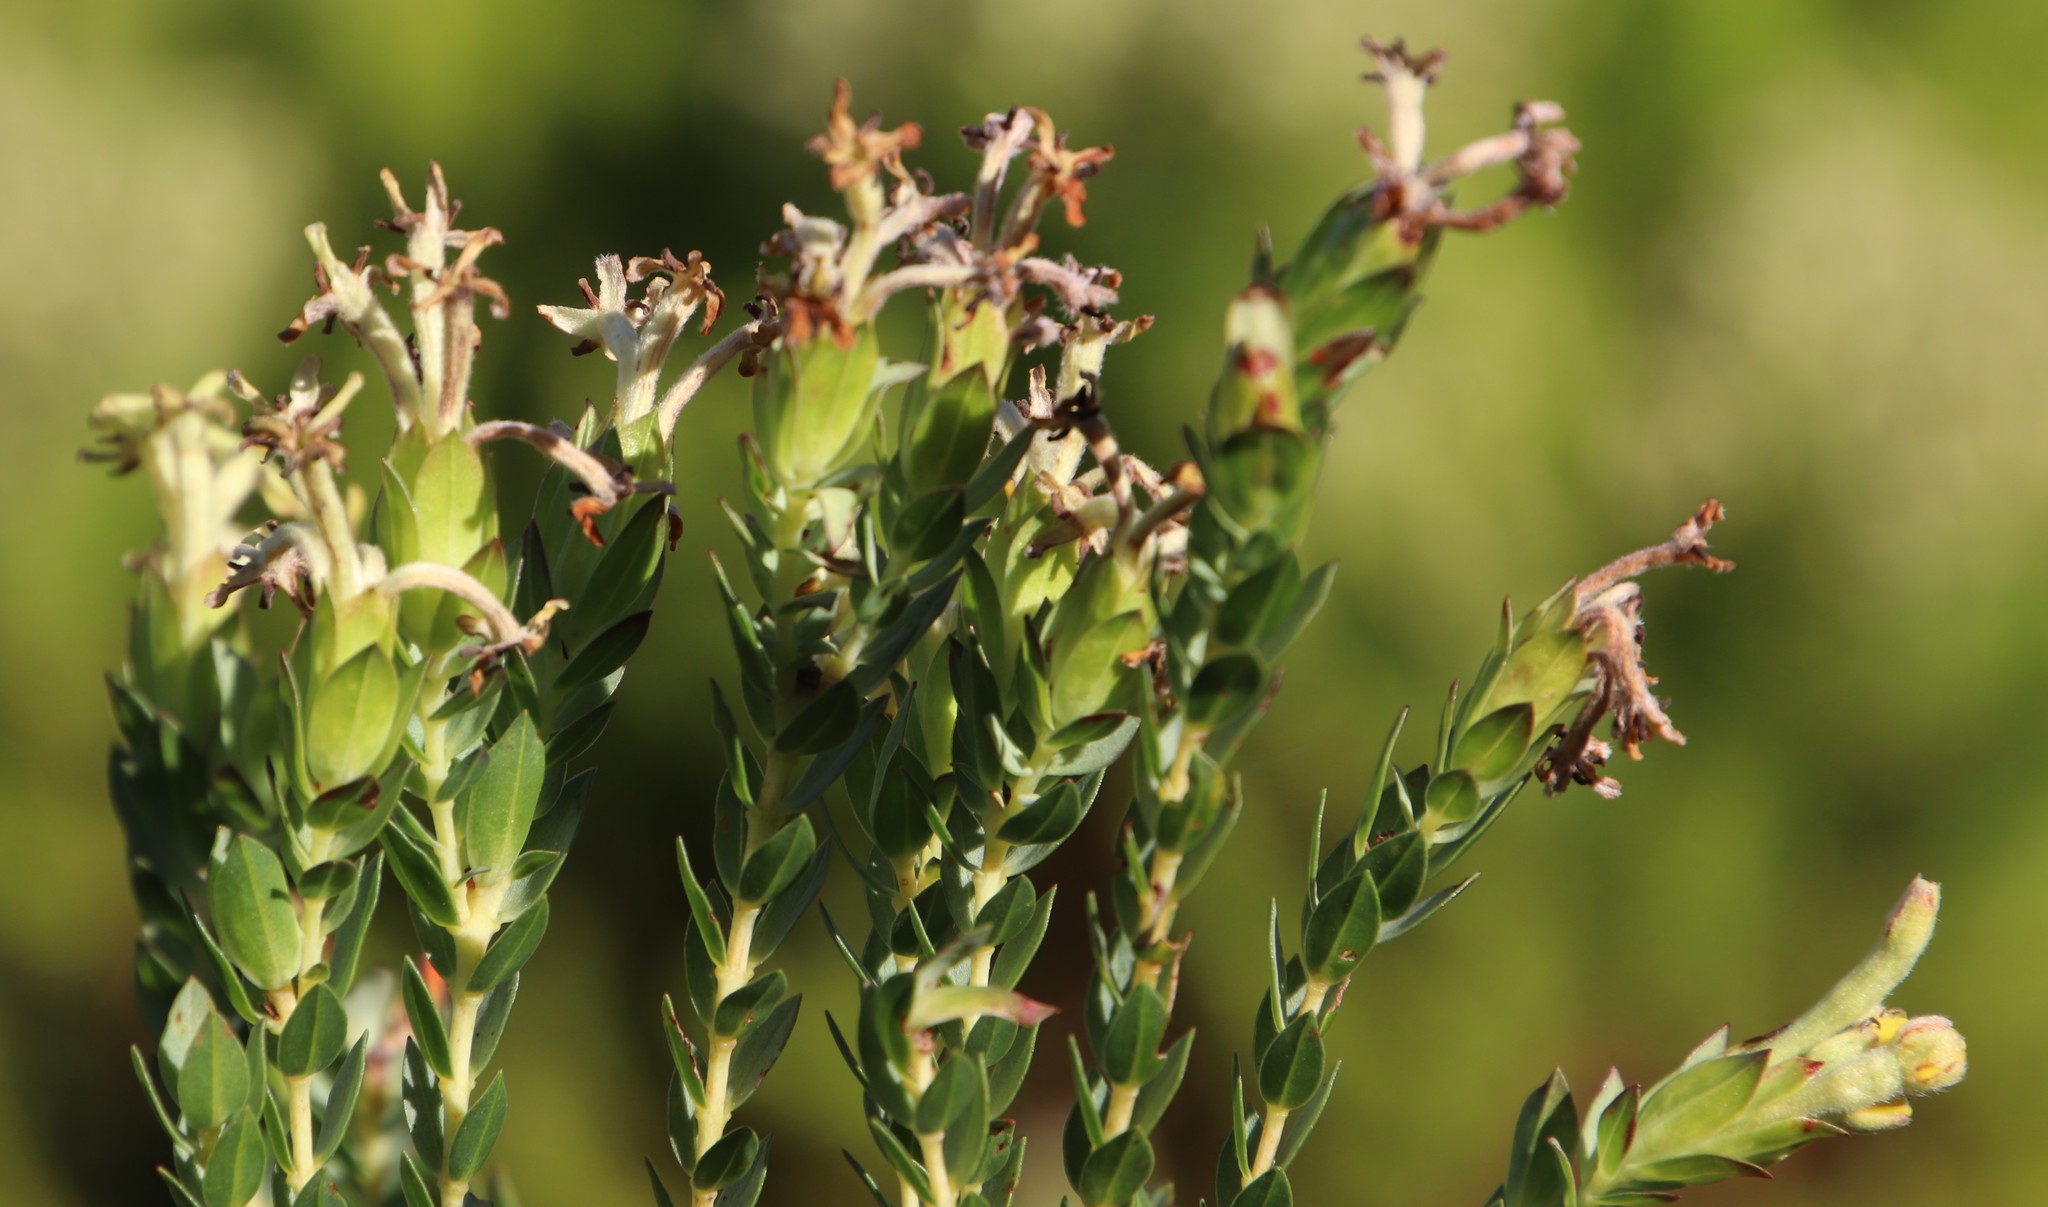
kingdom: Plantae
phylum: Tracheophyta
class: Magnoliopsida
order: Malvales
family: Thymelaeaceae
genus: Gnidia
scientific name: Gnidia oppositifolia
